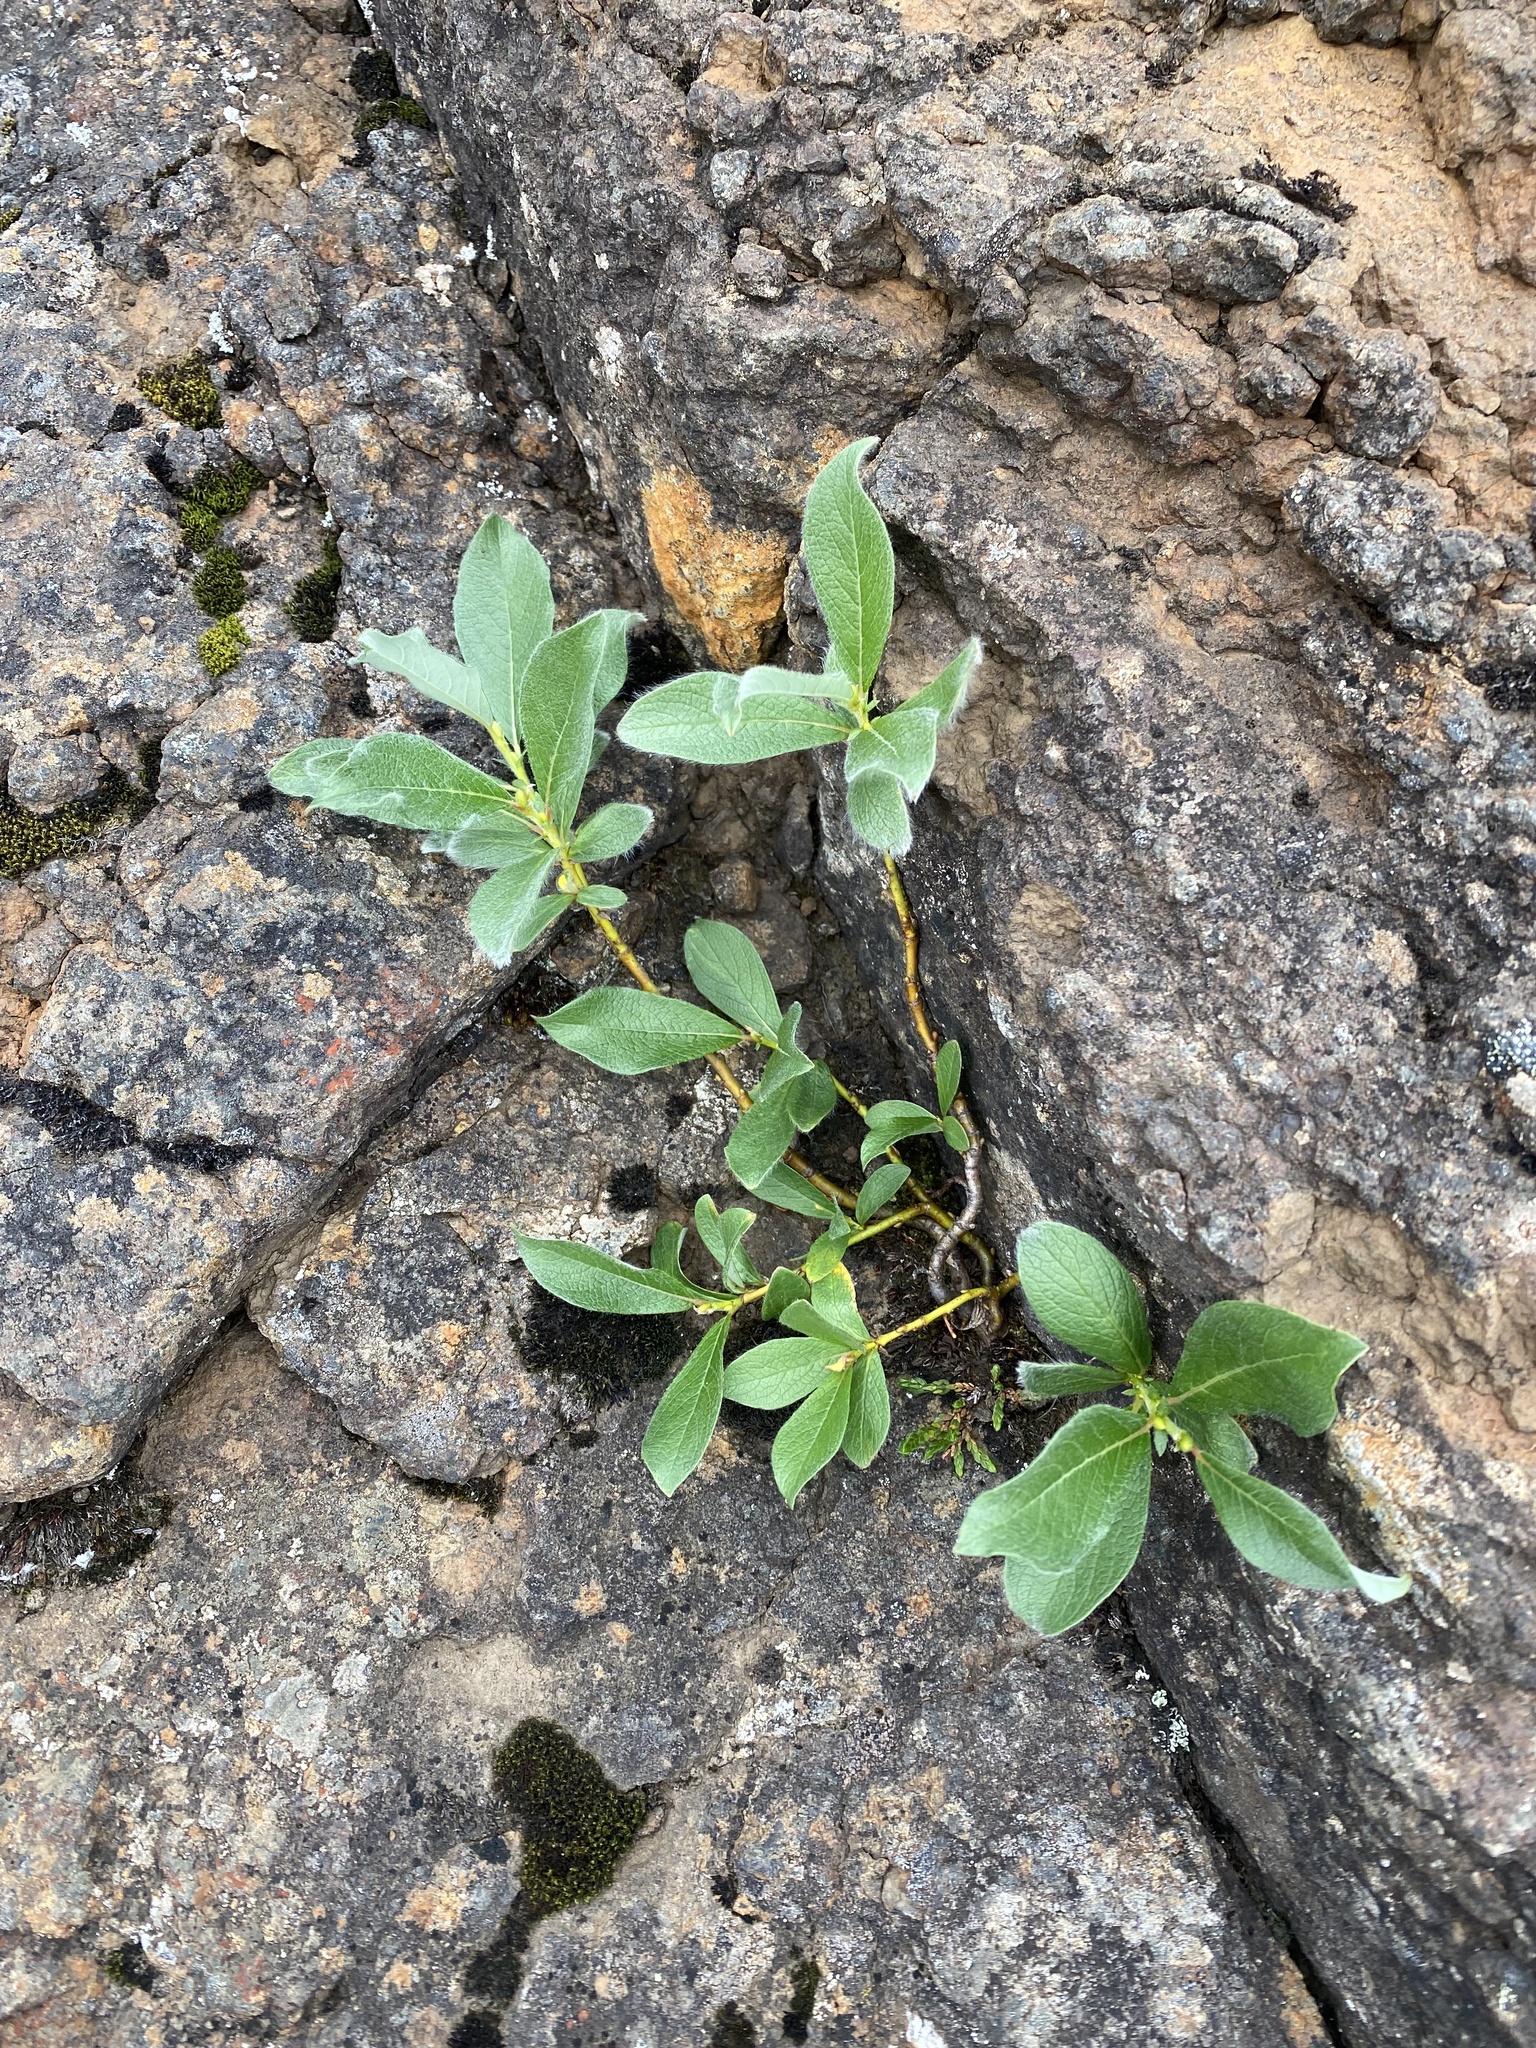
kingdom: Plantae
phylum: Tracheophyta
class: Magnoliopsida
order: Malpighiales
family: Salicaceae
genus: Salix
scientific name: Salix reptans
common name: Arctic creeping willow
